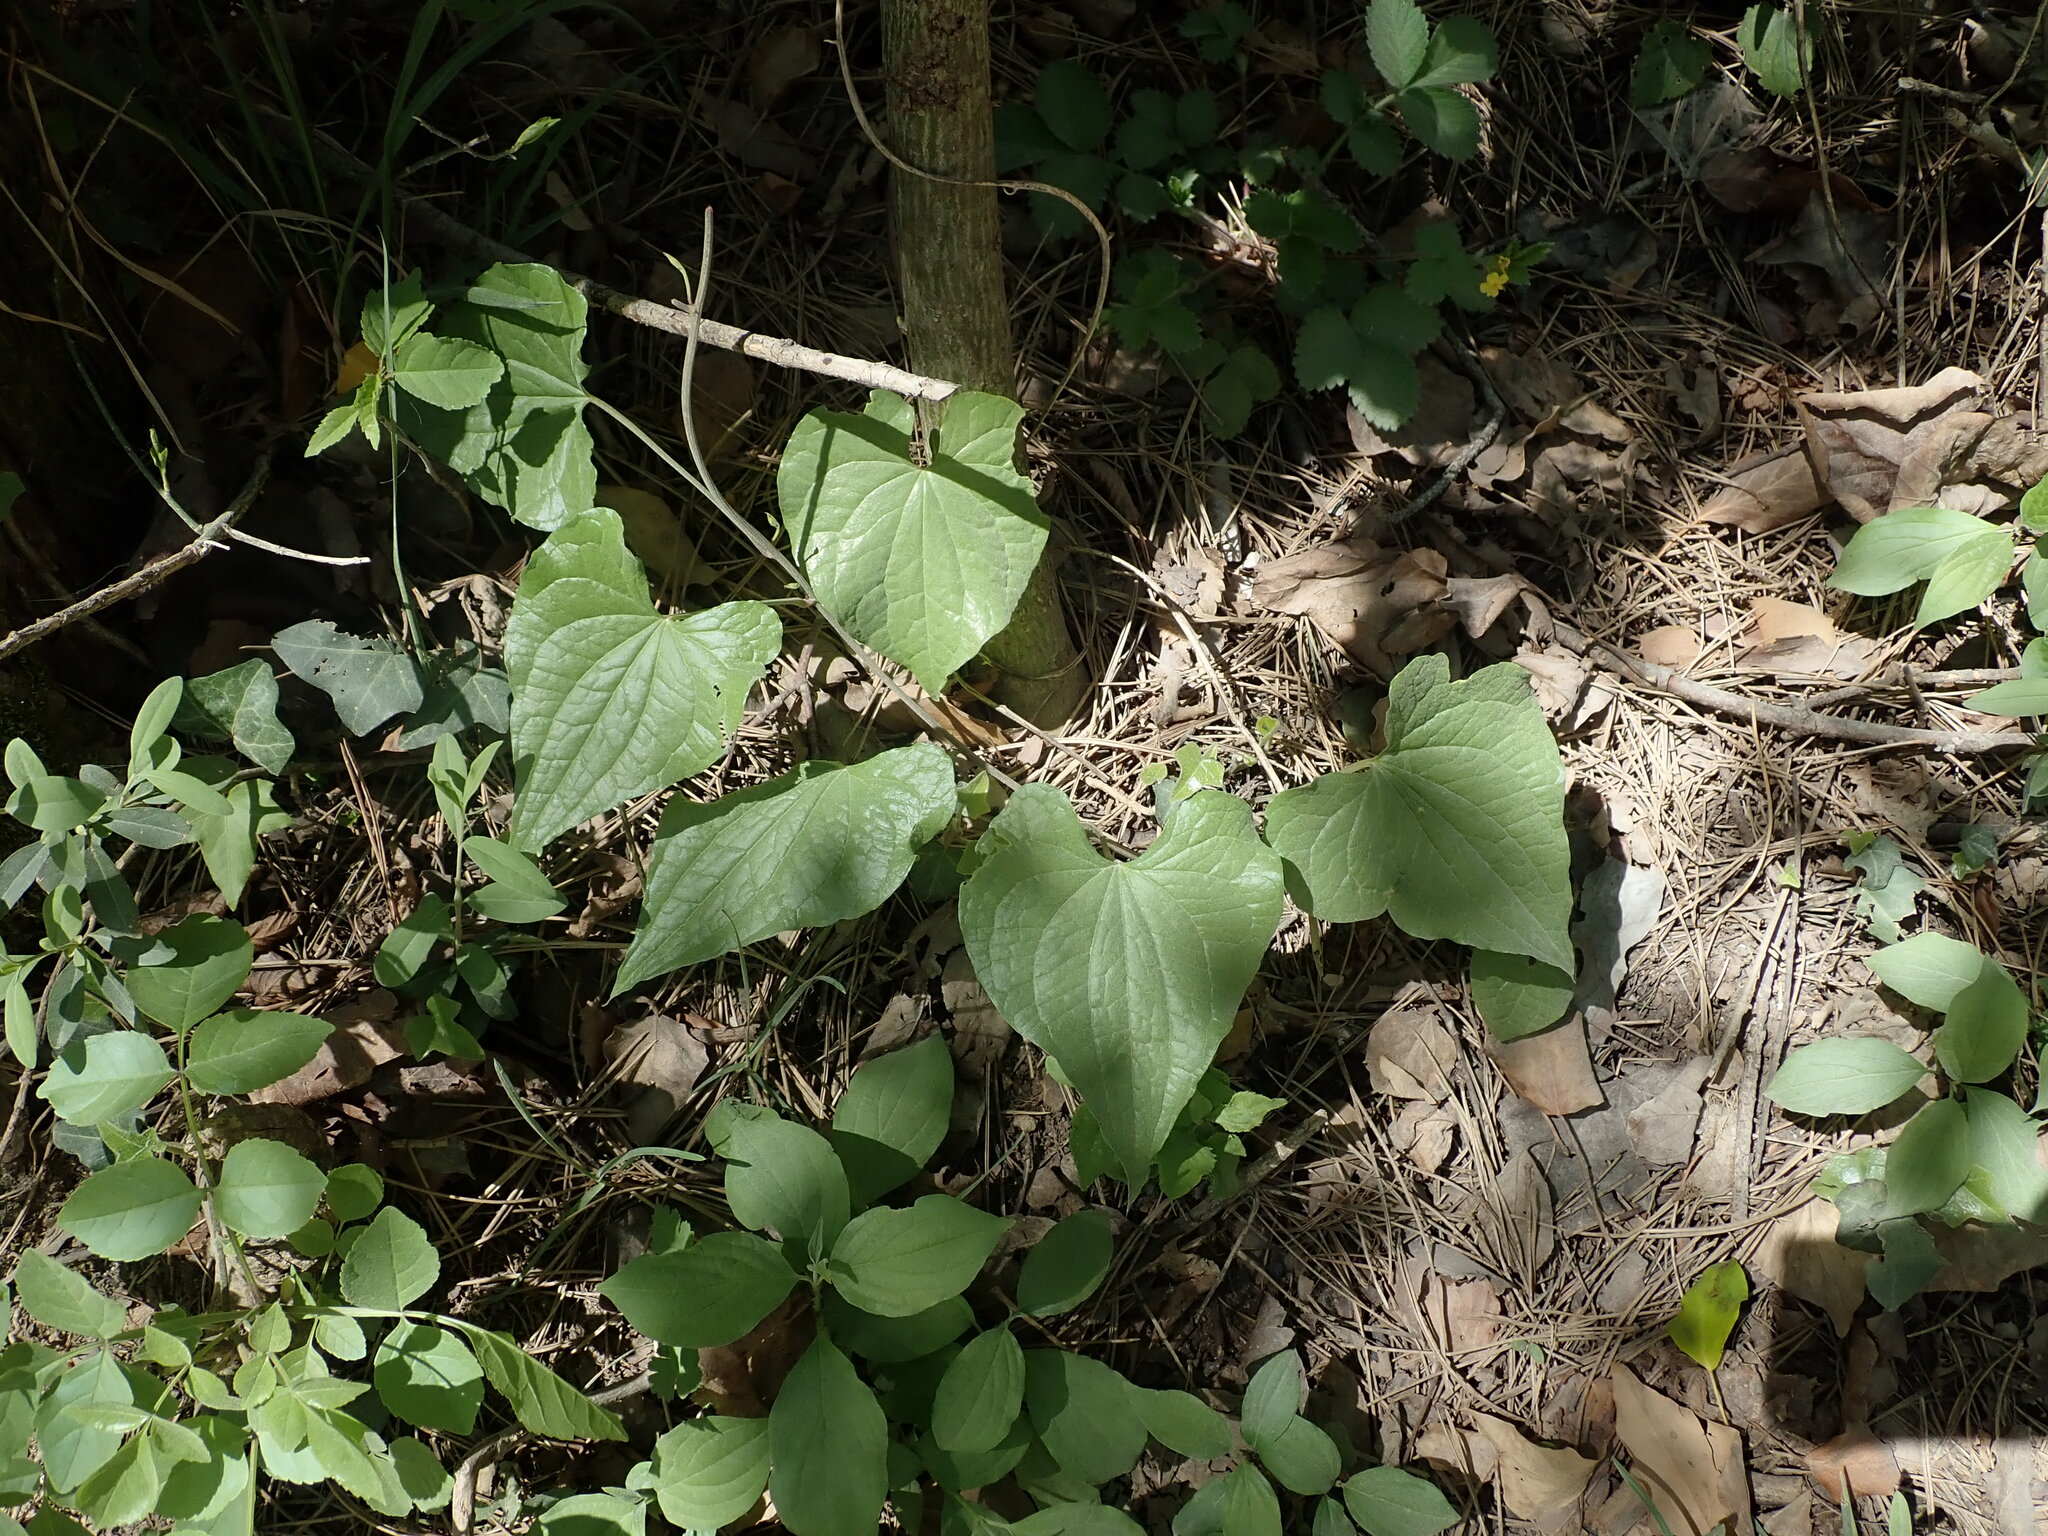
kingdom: Plantae
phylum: Tracheophyta
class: Liliopsida
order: Dioscoreales
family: Dioscoreaceae
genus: Dioscorea
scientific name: Dioscorea communis
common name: Black-bindweed
